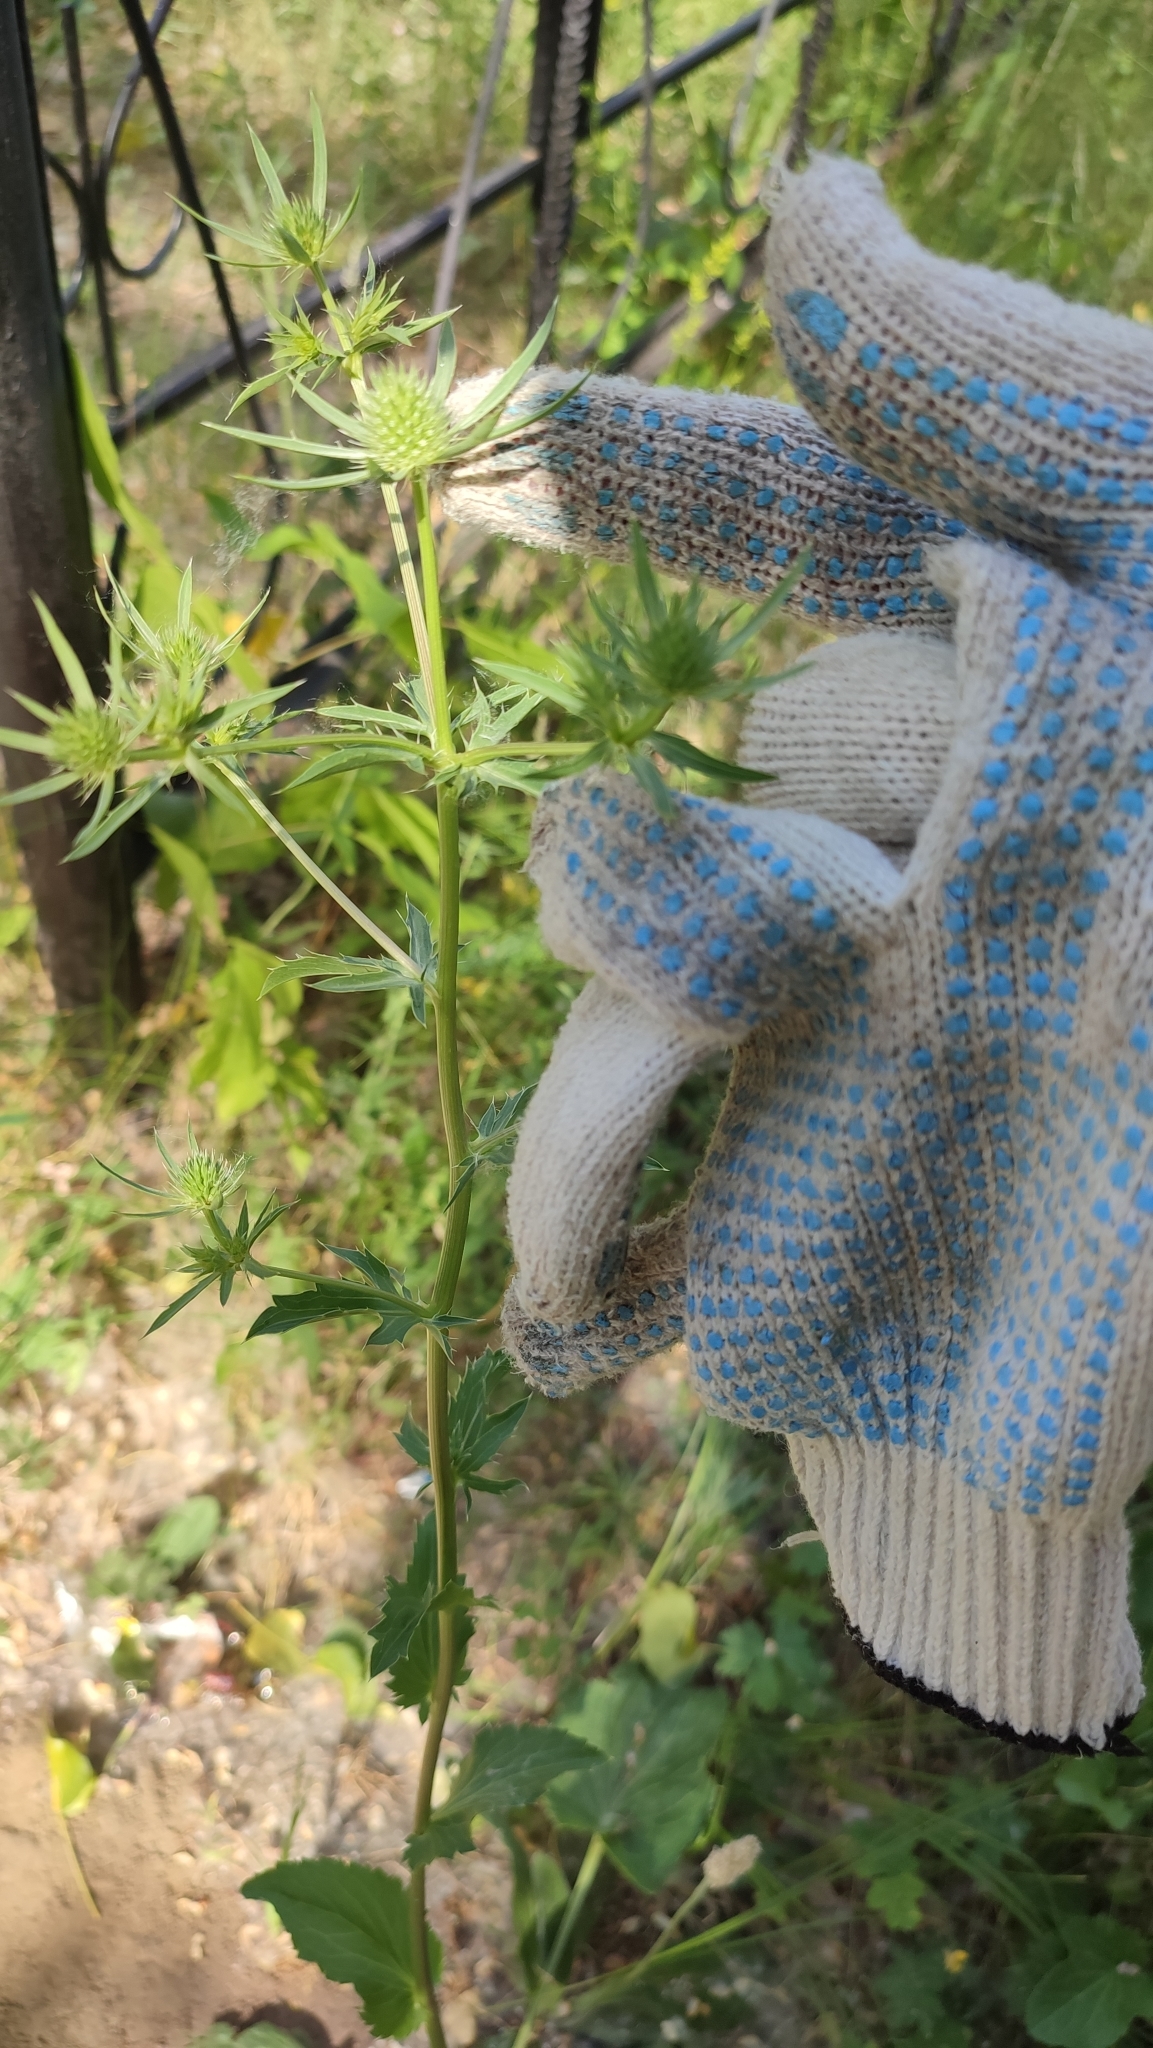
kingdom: Plantae
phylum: Tracheophyta
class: Magnoliopsida
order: Apiales
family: Apiaceae
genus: Eryngium
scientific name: Eryngium planum
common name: Blue eryngo
